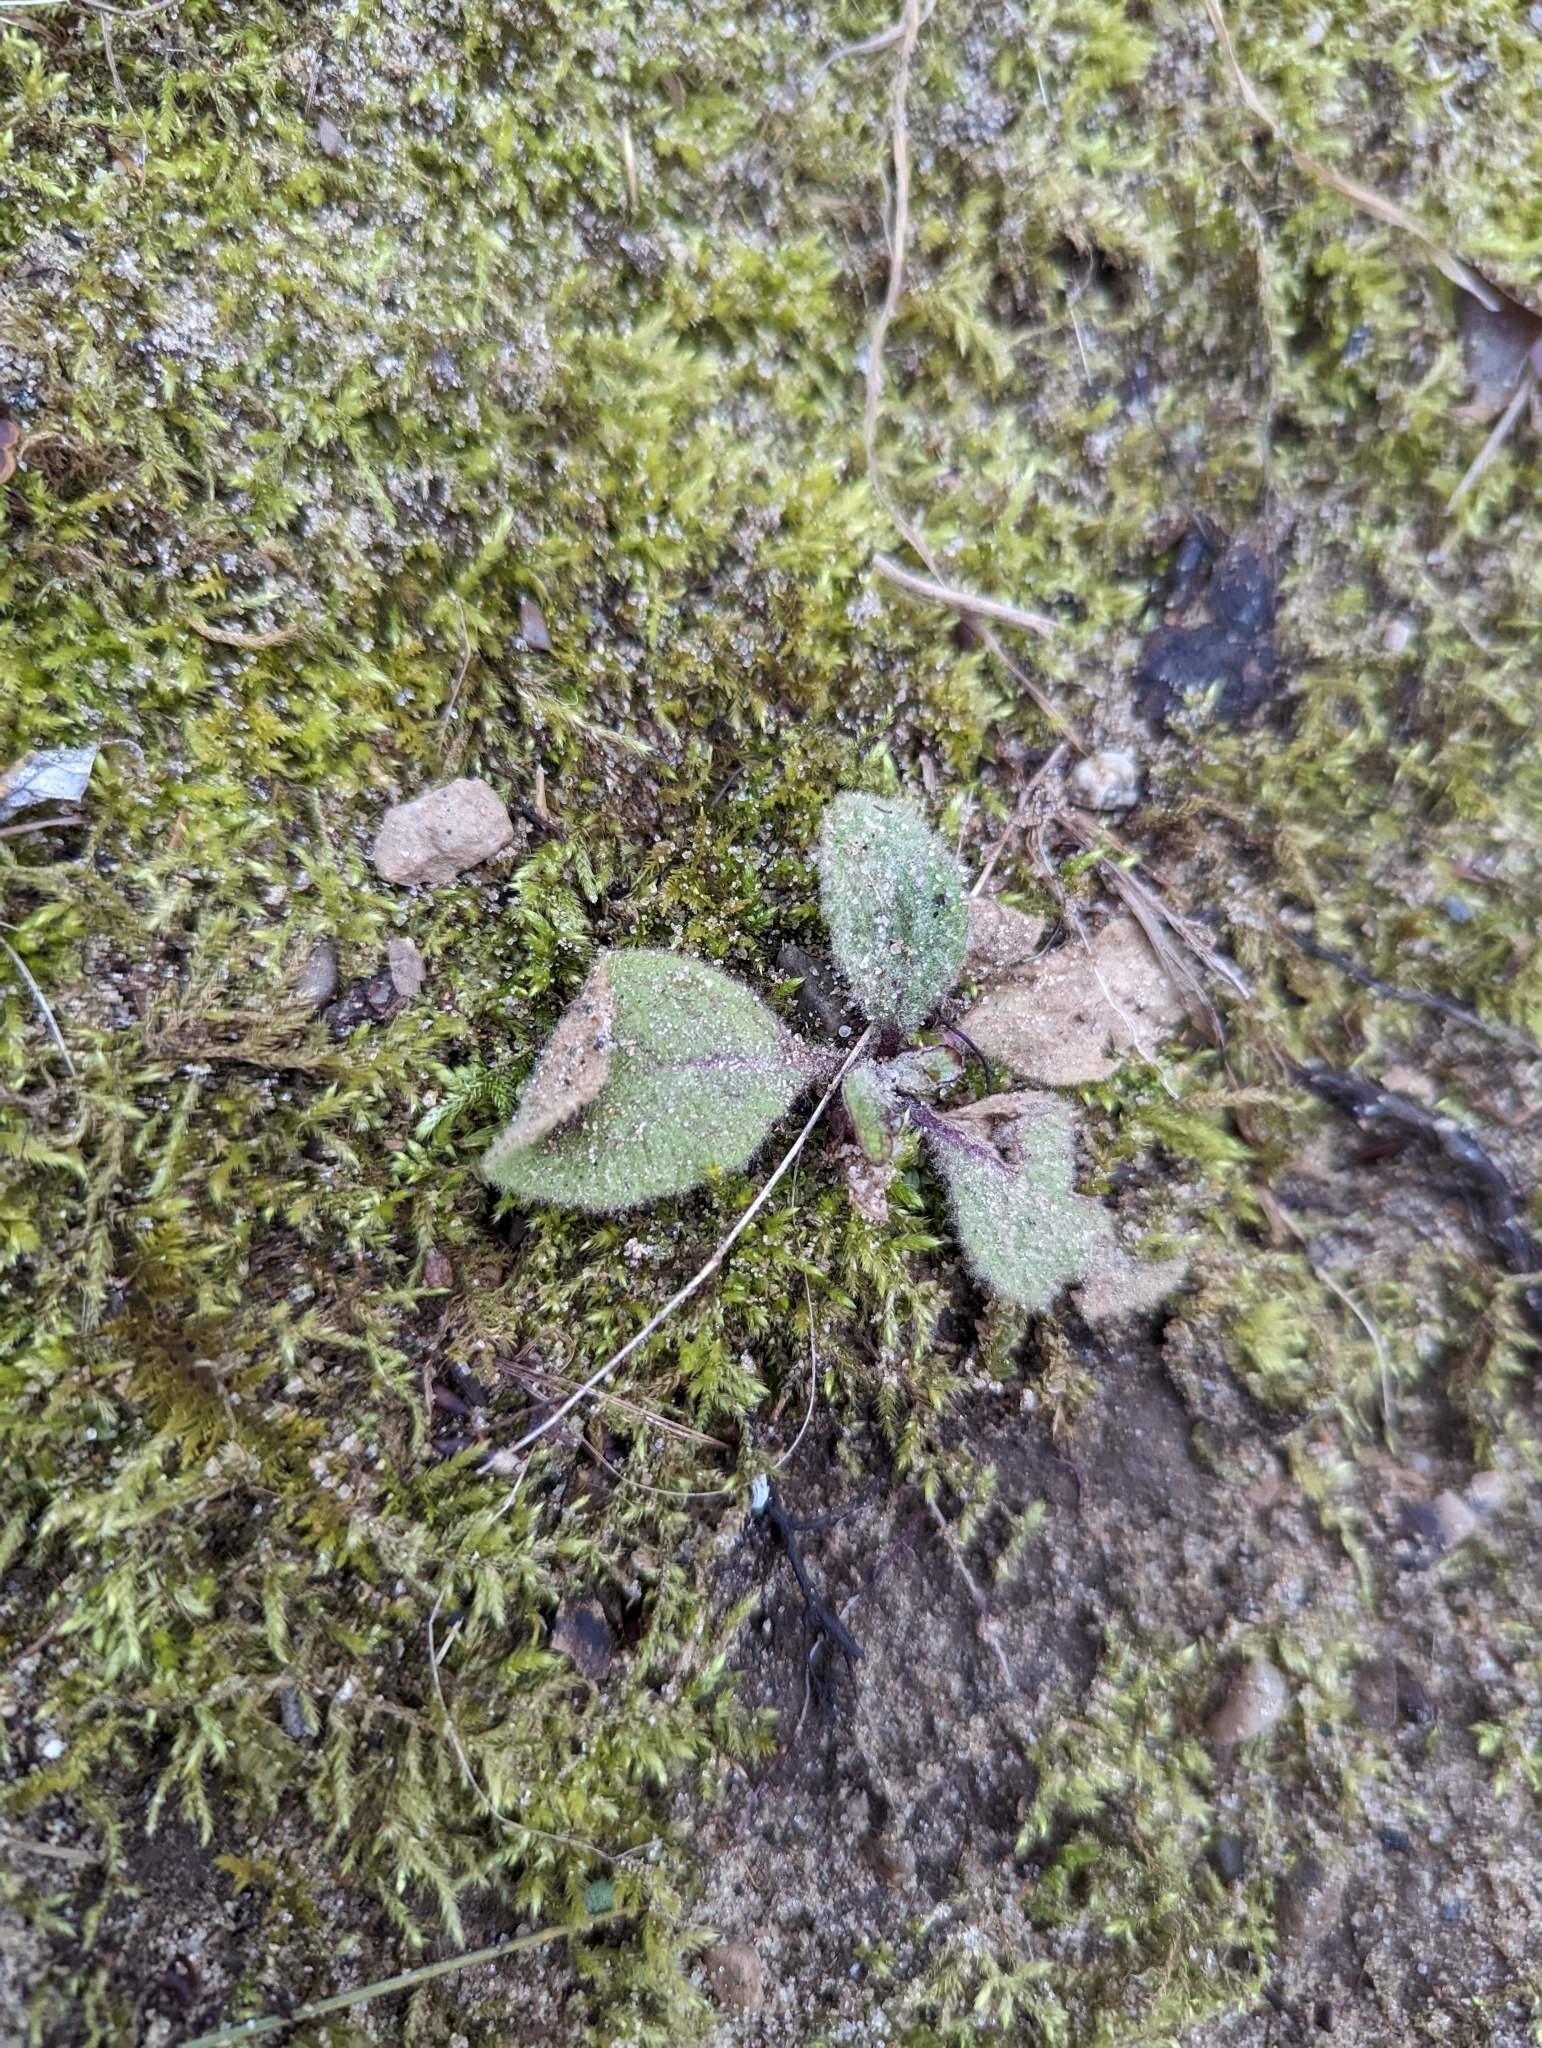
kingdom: Plantae
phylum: Tracheophyta
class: Magnoliopsida
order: Lamiales
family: Scrophulariaceae
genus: Verbascum
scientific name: Verbascum thapsus
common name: Common mullein
